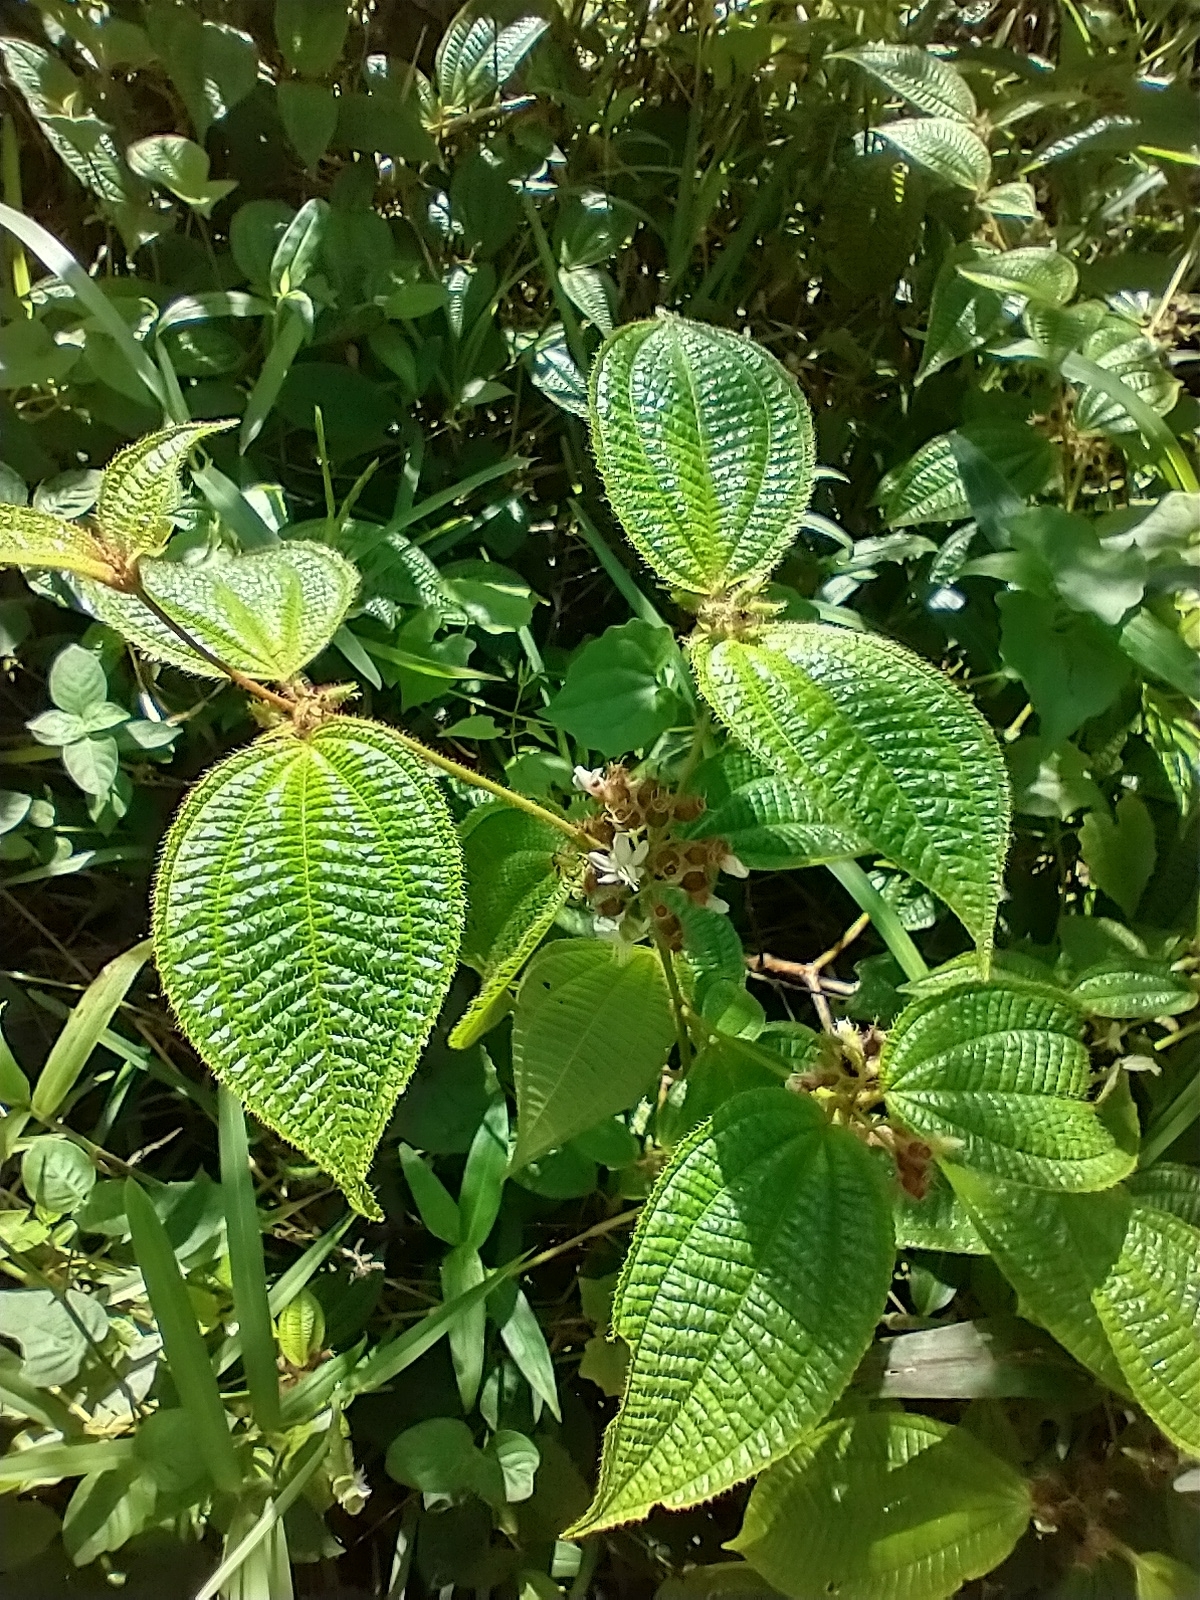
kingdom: Plantae
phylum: Tracheophyta
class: Magnoliopsida
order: Myrtales
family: Melastomataceae
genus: Miconia
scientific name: Miconia crenata
